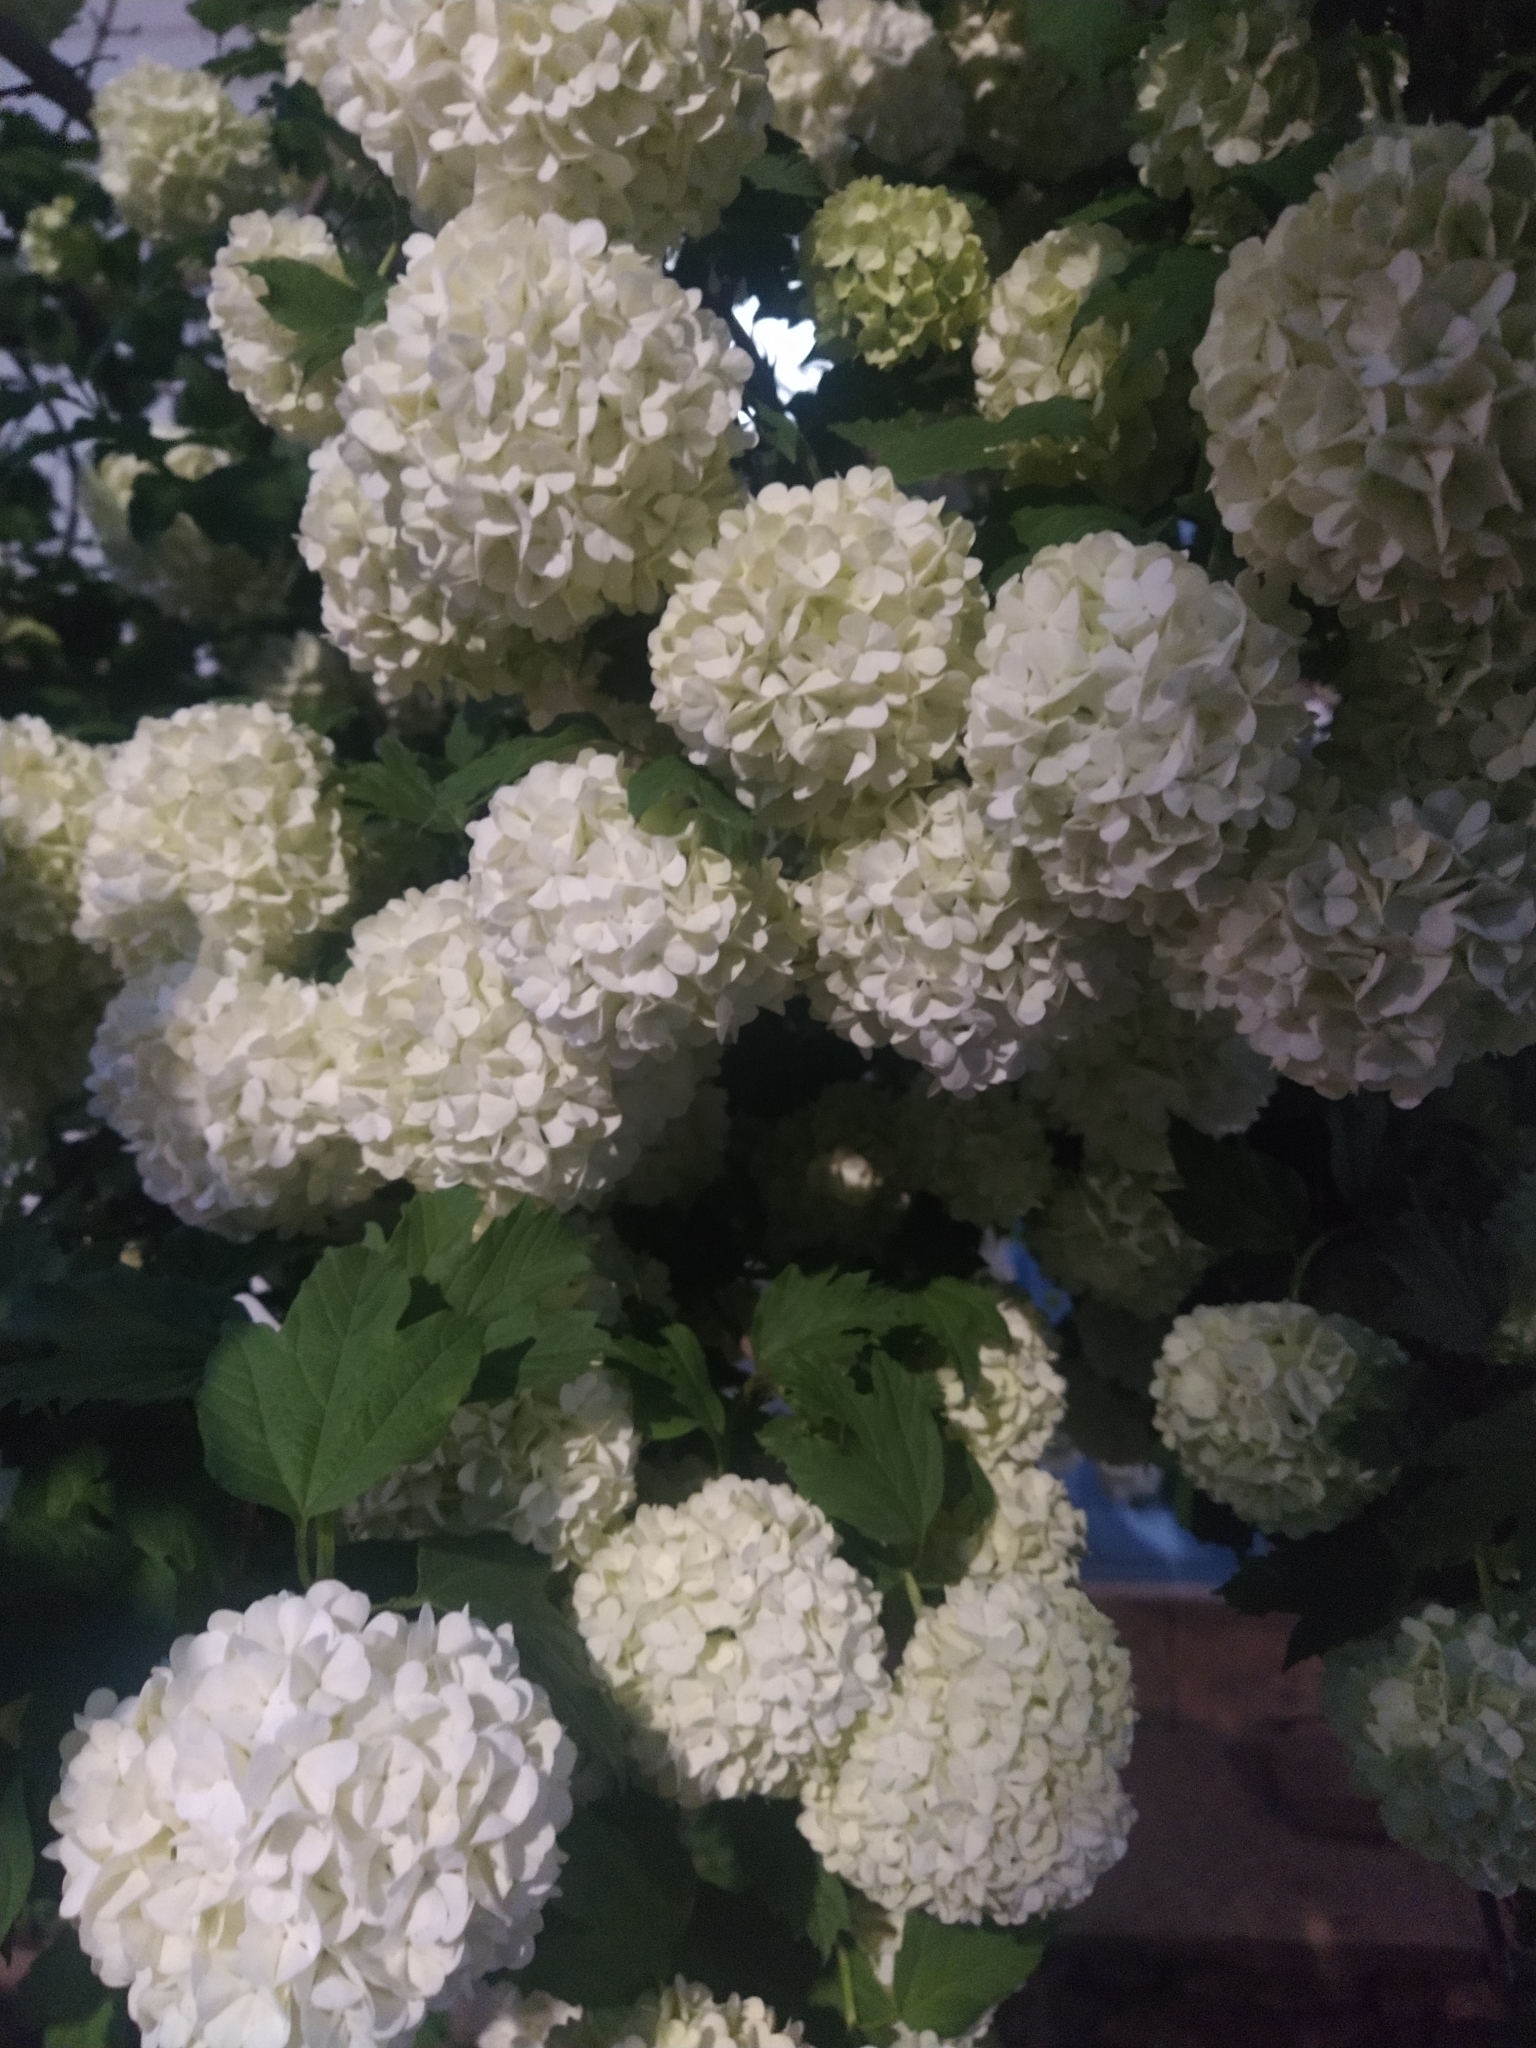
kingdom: Plantae
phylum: Tracheophyta
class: Magnoliopsida
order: Dipsacales
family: Viburnaceae
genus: Viburnum
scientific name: Viburnum opulus
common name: Guelder-rose
